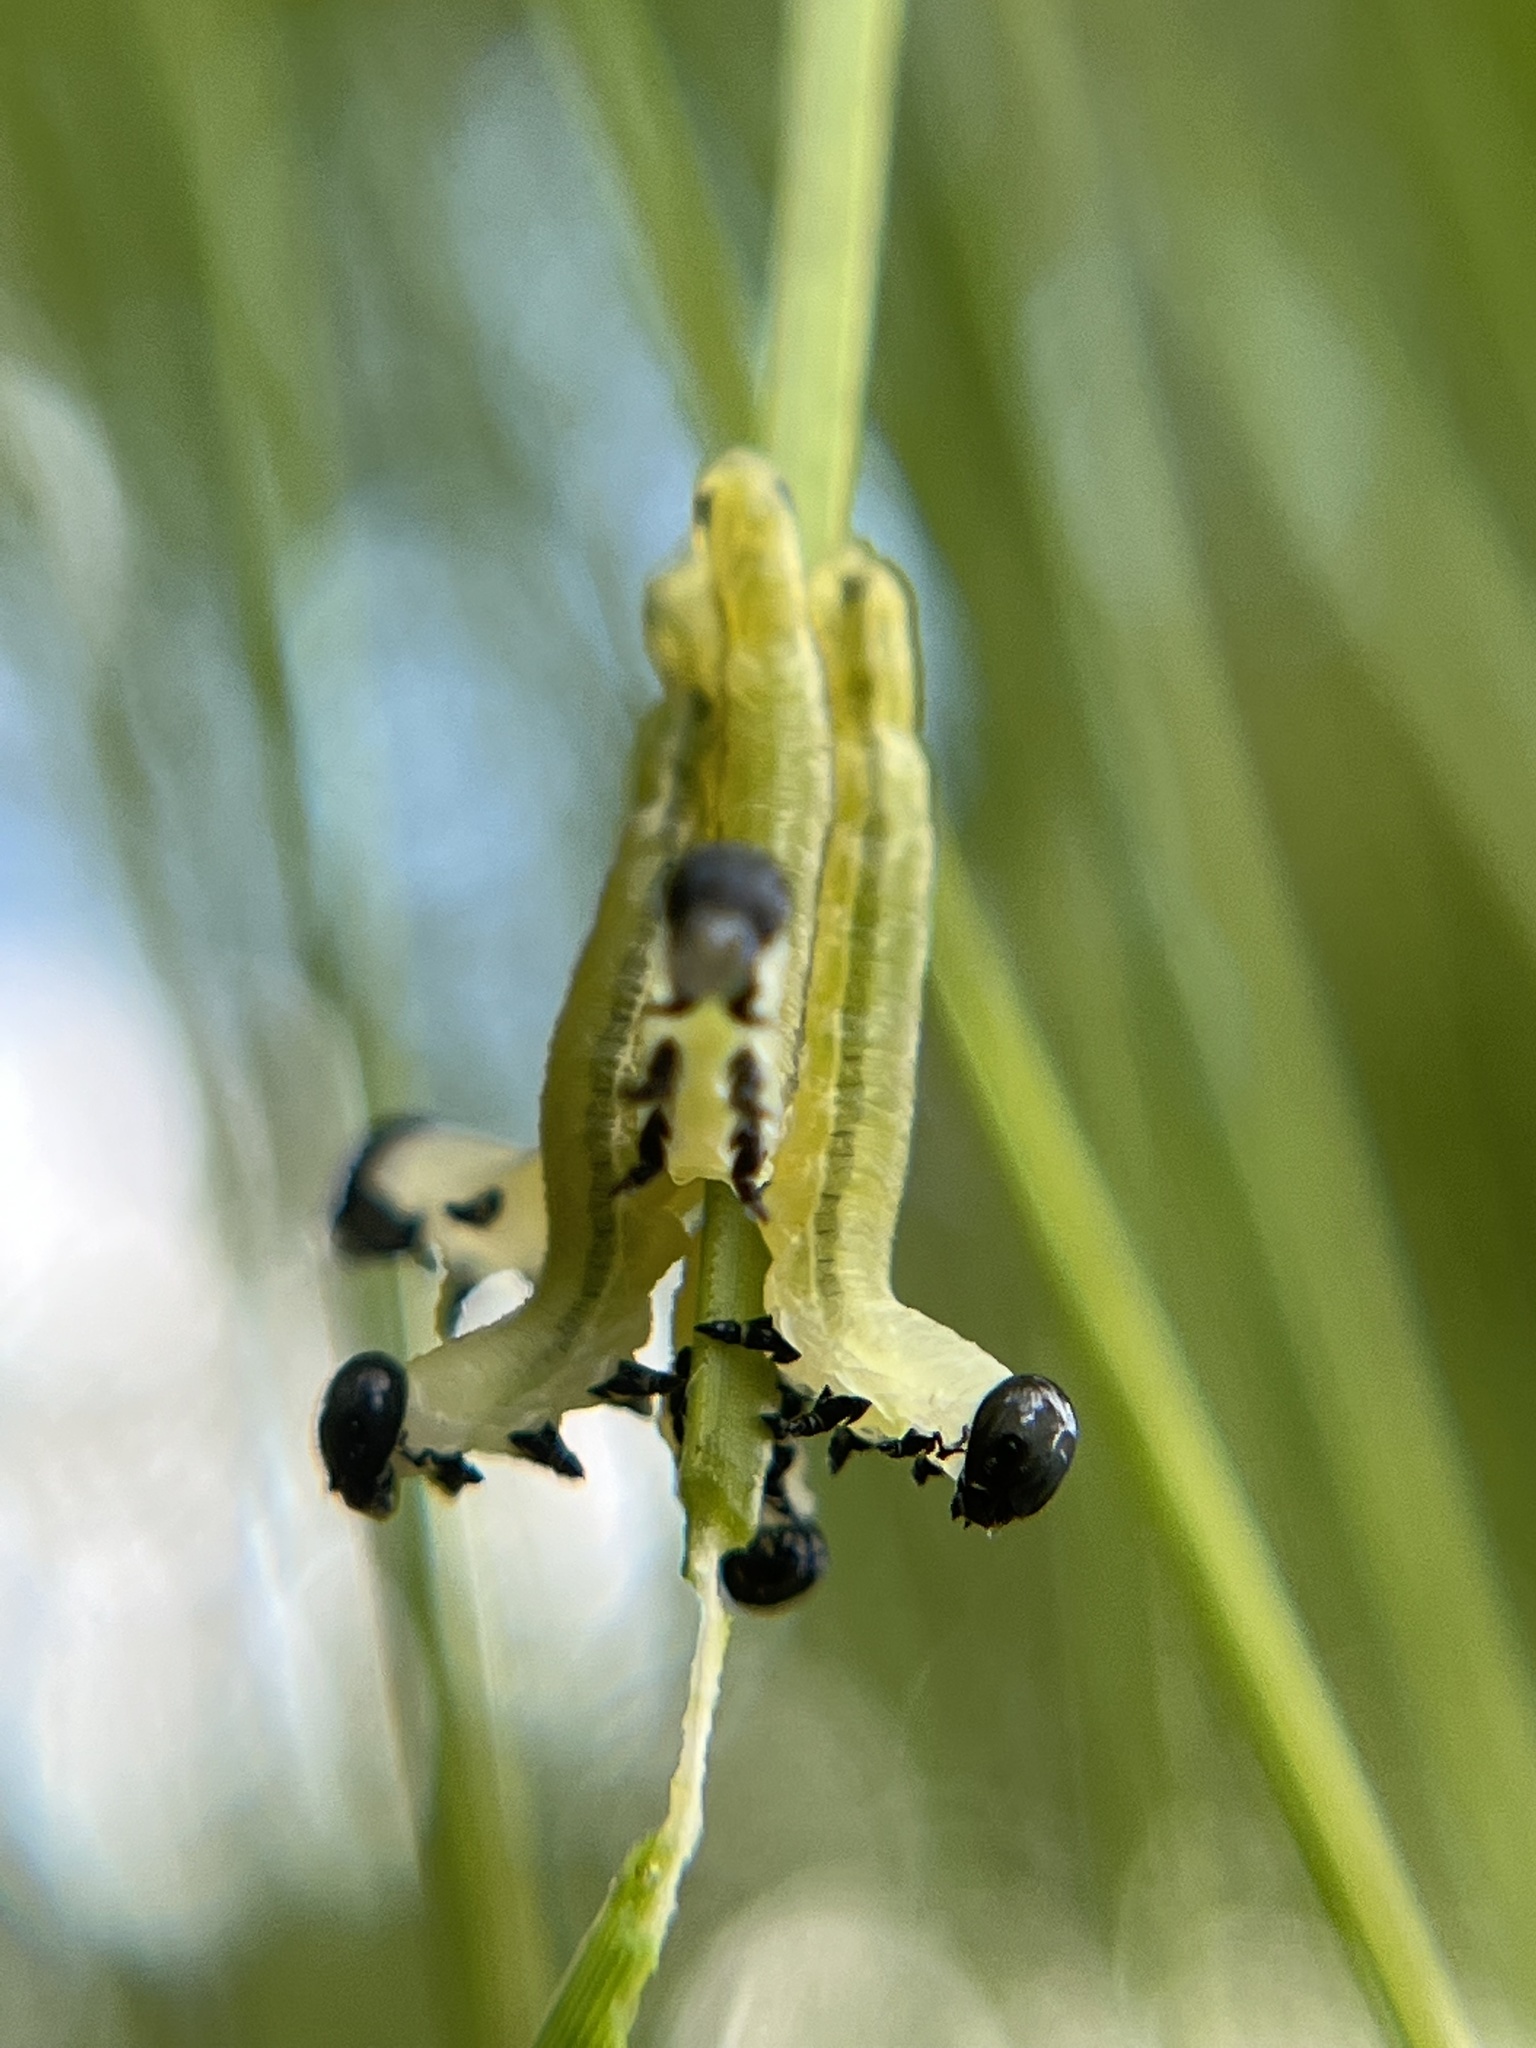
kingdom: Animalia
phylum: Arthropoda
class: Insecta
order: Hymenoptera
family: Diprionidae
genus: Neodiprion
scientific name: Neodiprion merkeli
